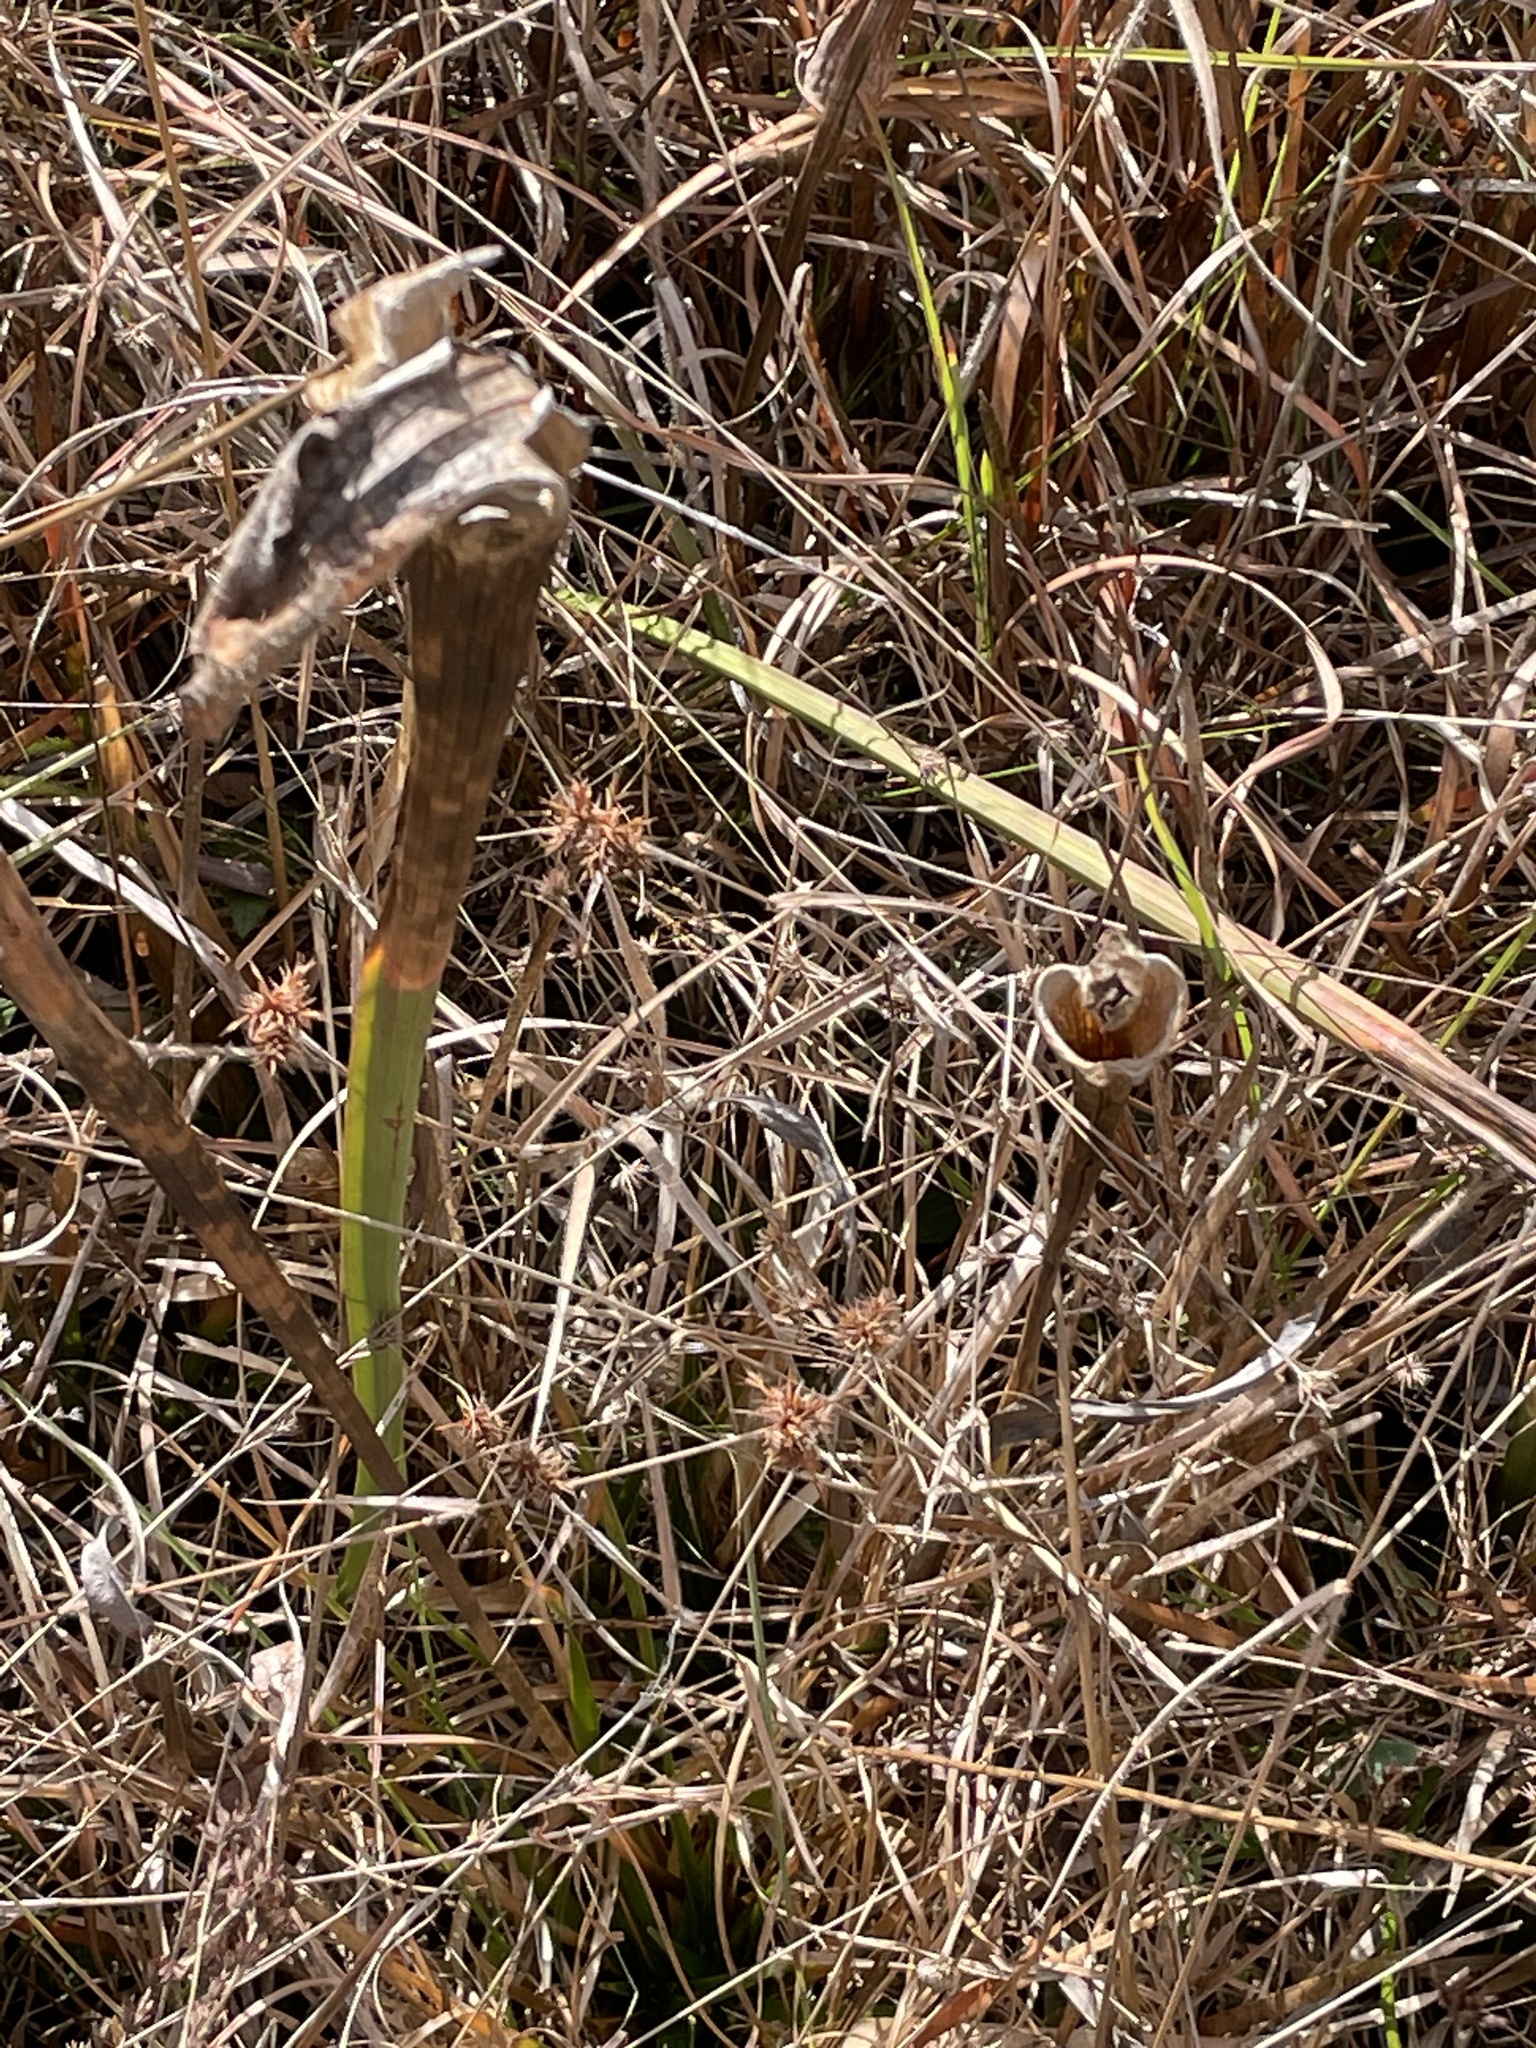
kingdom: Plantae
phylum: Tracheophyta
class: Magnoliopsida
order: Ericales
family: Sarraceniaceae
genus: Sarracenia
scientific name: Sarracenia leucophylla
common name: Purple trumpetleaf
